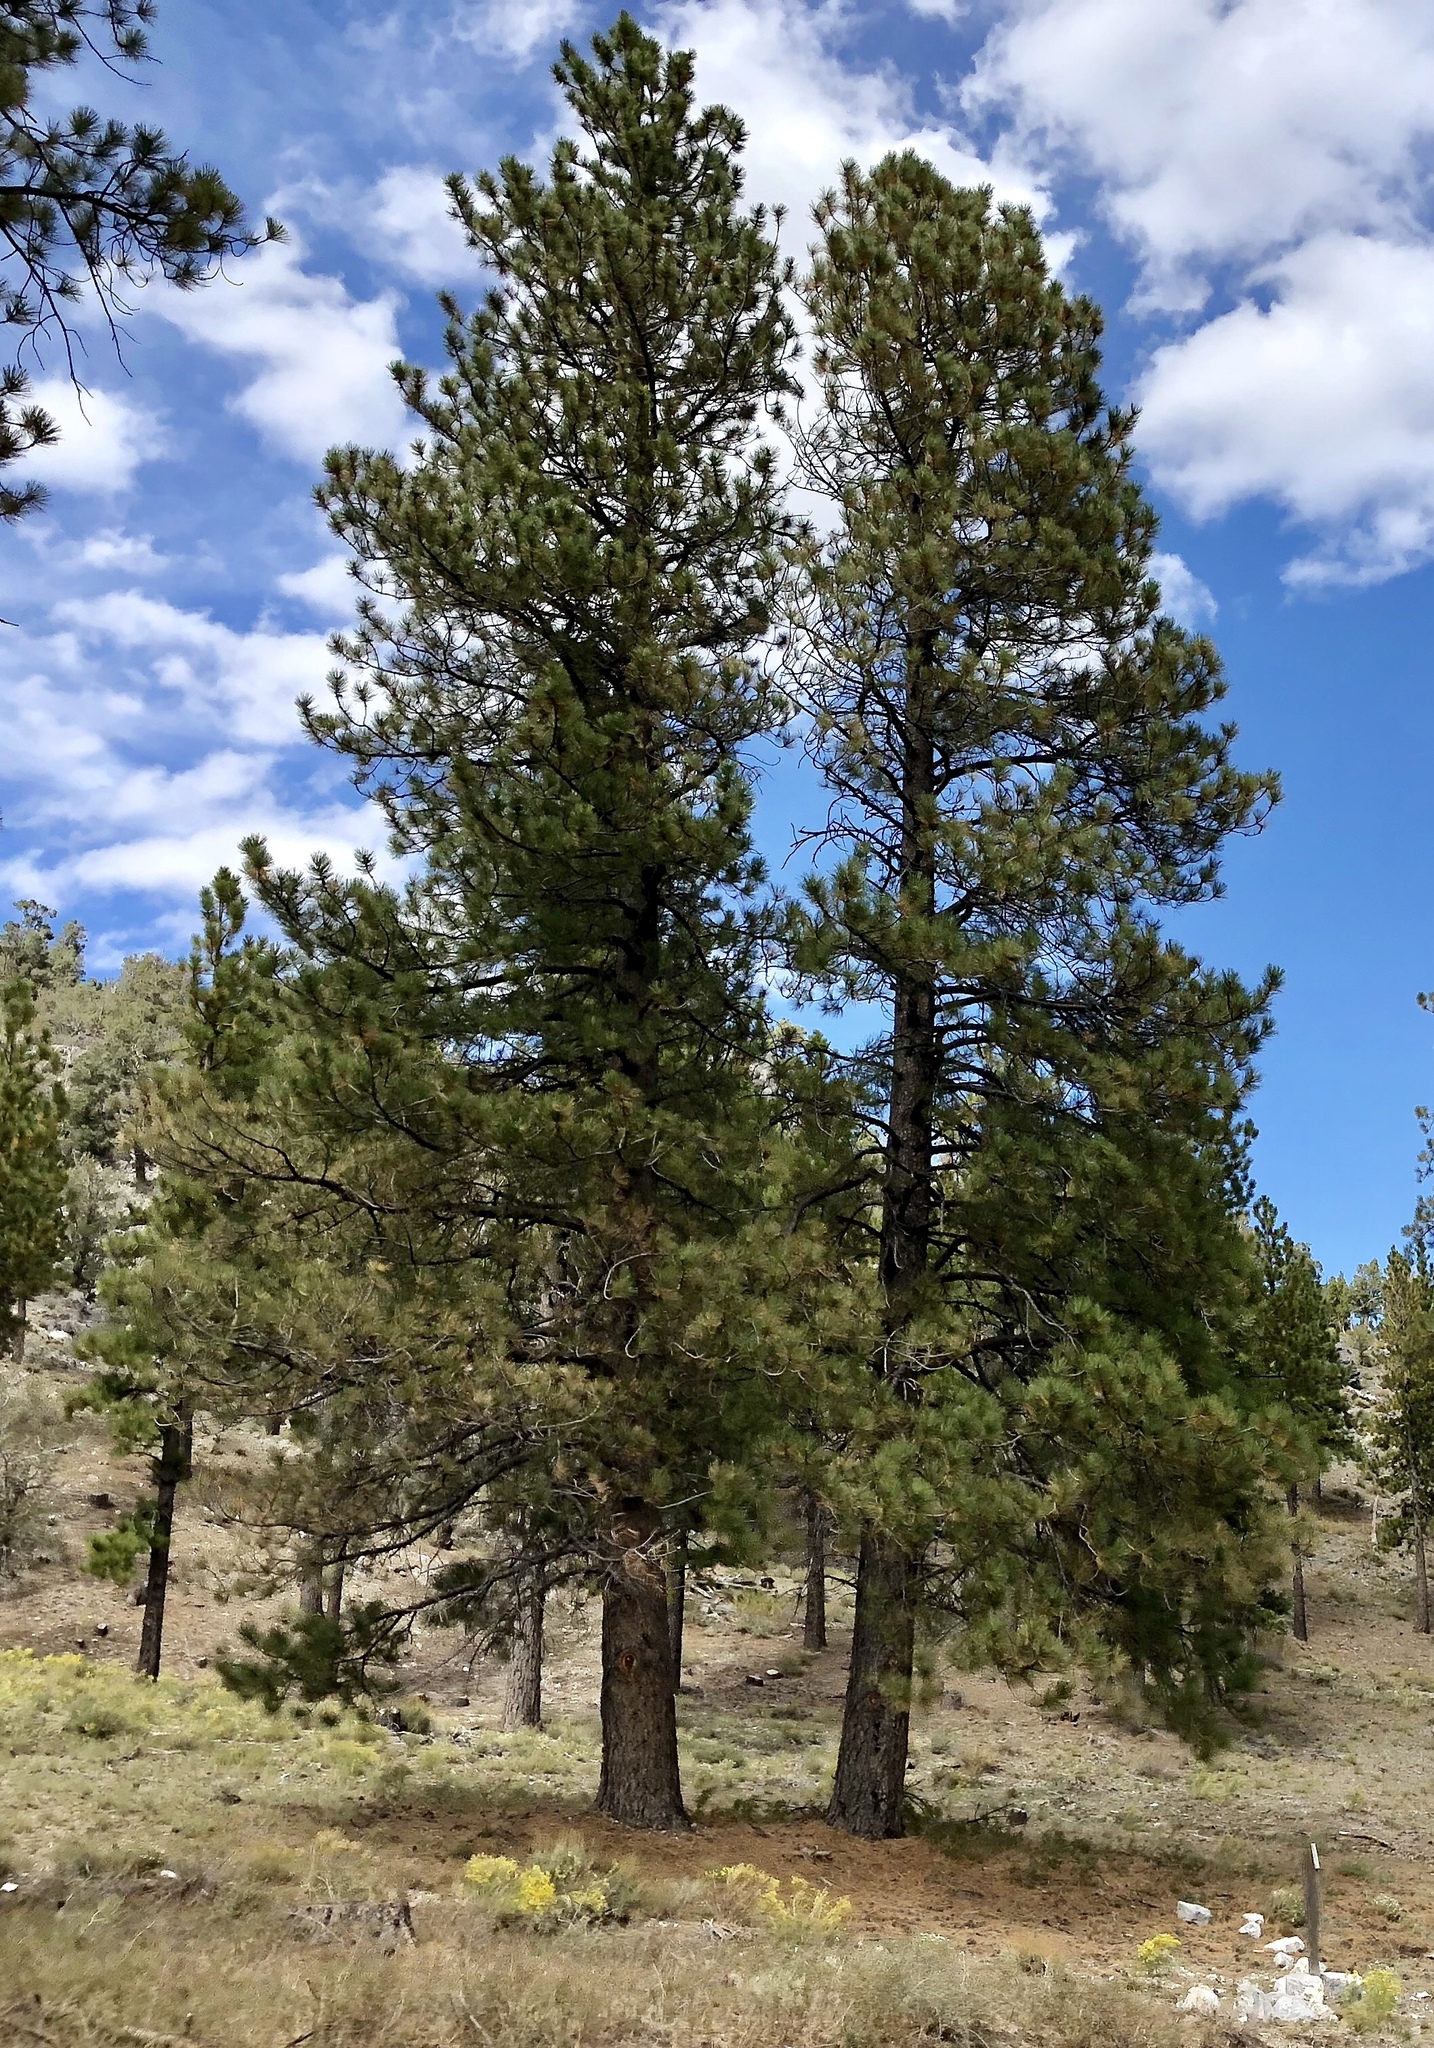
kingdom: Plantae
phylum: Tracheophyta
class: Pinopsida
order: Pinales
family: Pinaceae
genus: Pinus
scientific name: Pinus ponderosa
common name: Western yellow-pine
